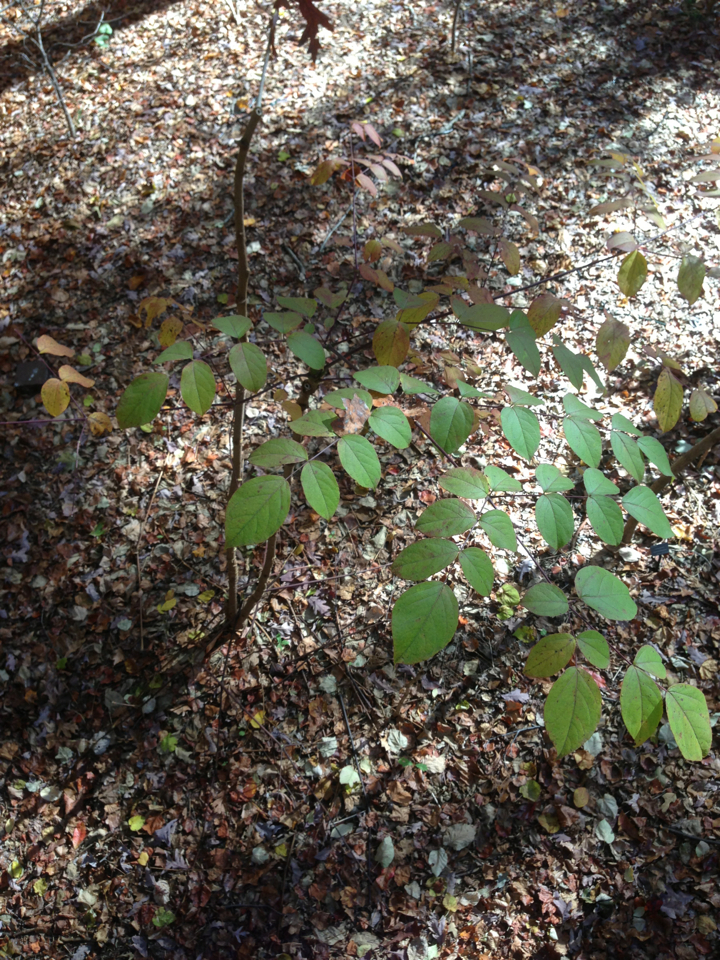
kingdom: Plantae
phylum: Tracheophyta
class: Magnoliopsida
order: Apiales
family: Araliaceae
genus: Aralia
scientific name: Aralia spinosa
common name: Hercules'-club
